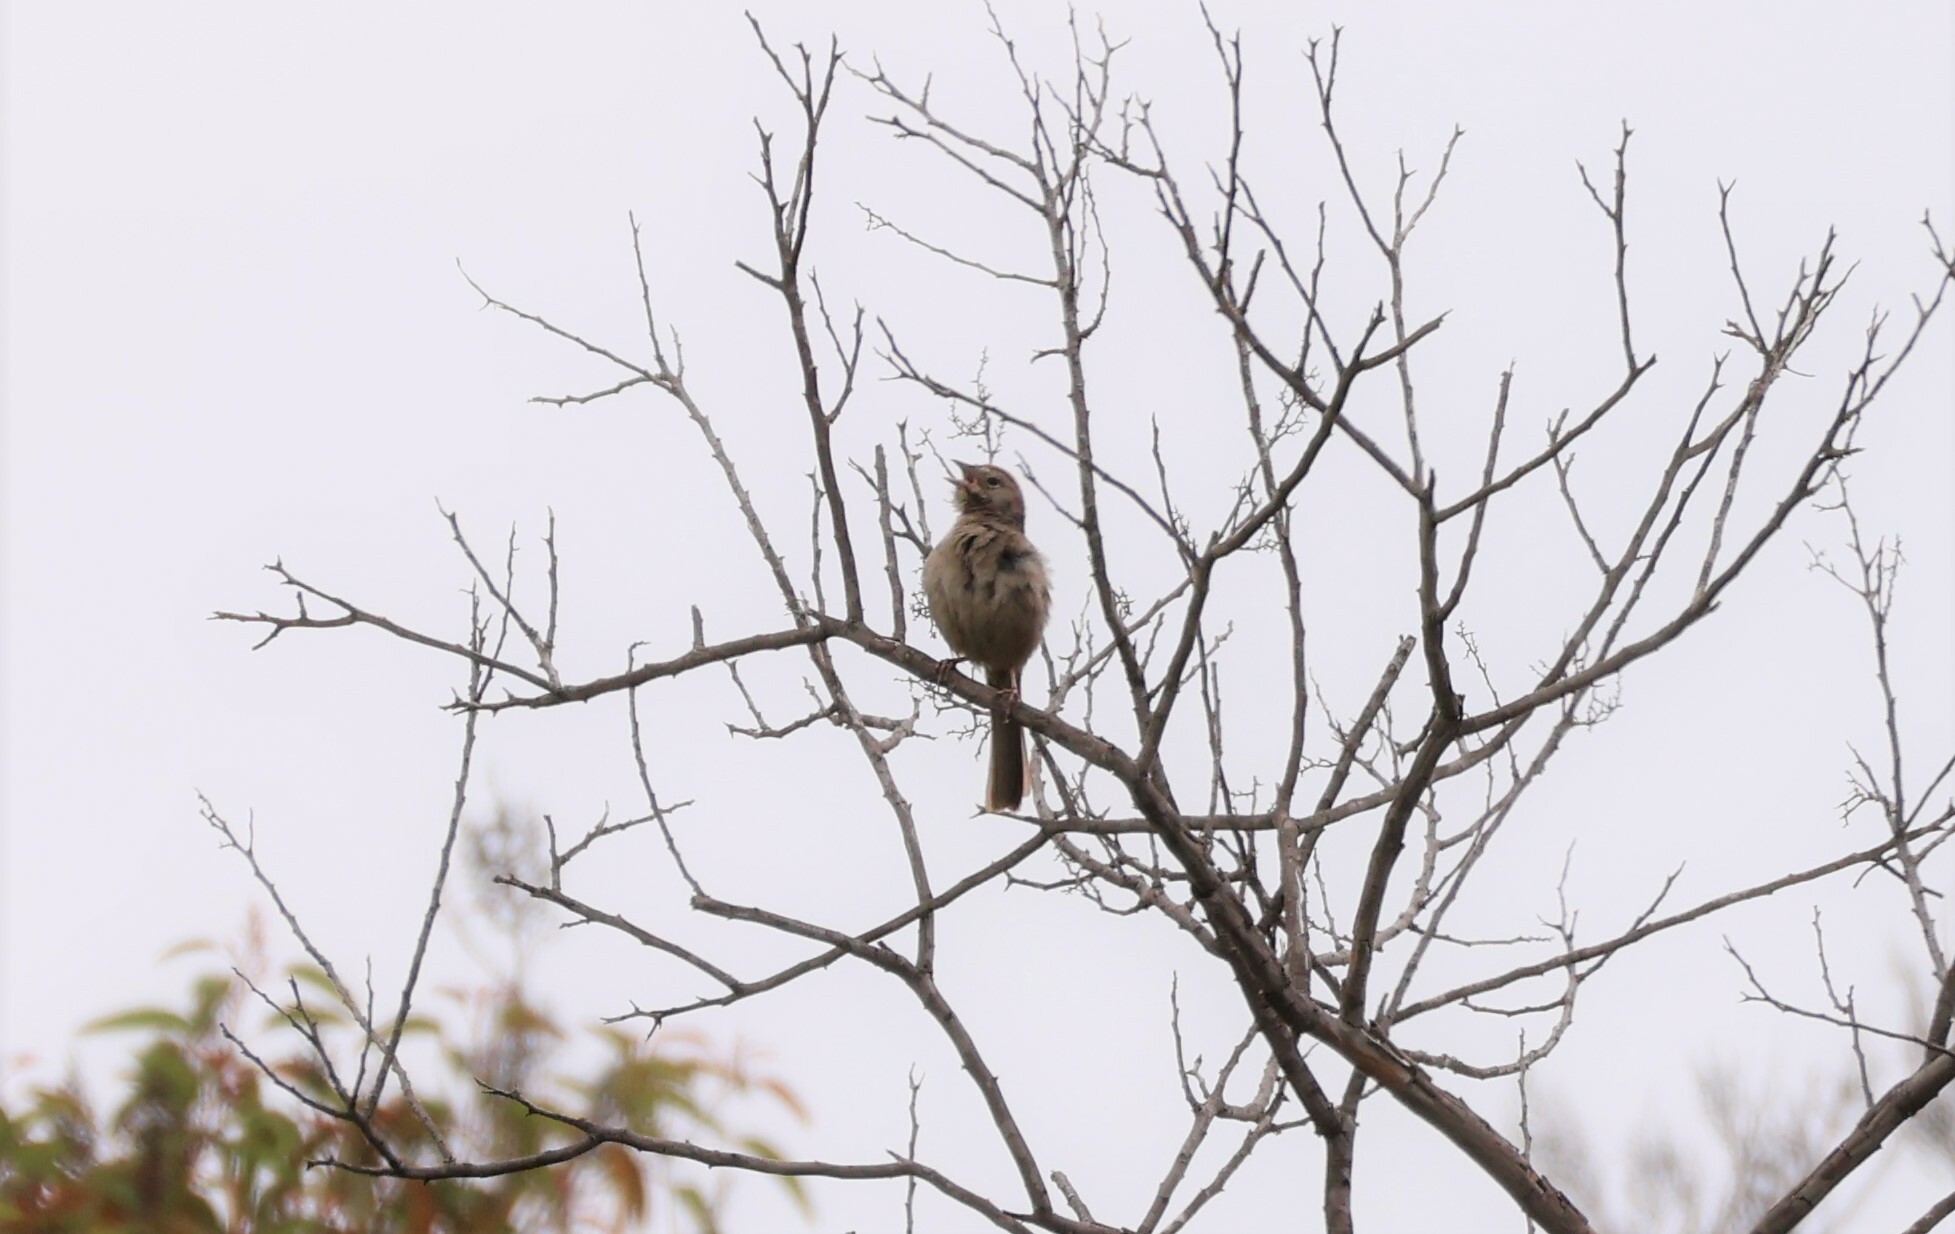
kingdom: Animalia
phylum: Chordata
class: Aves
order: Passeriformes
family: Passerellidae
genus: Aimophila
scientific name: Aimophila ruficeps
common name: Rufous-crowned sparrow
